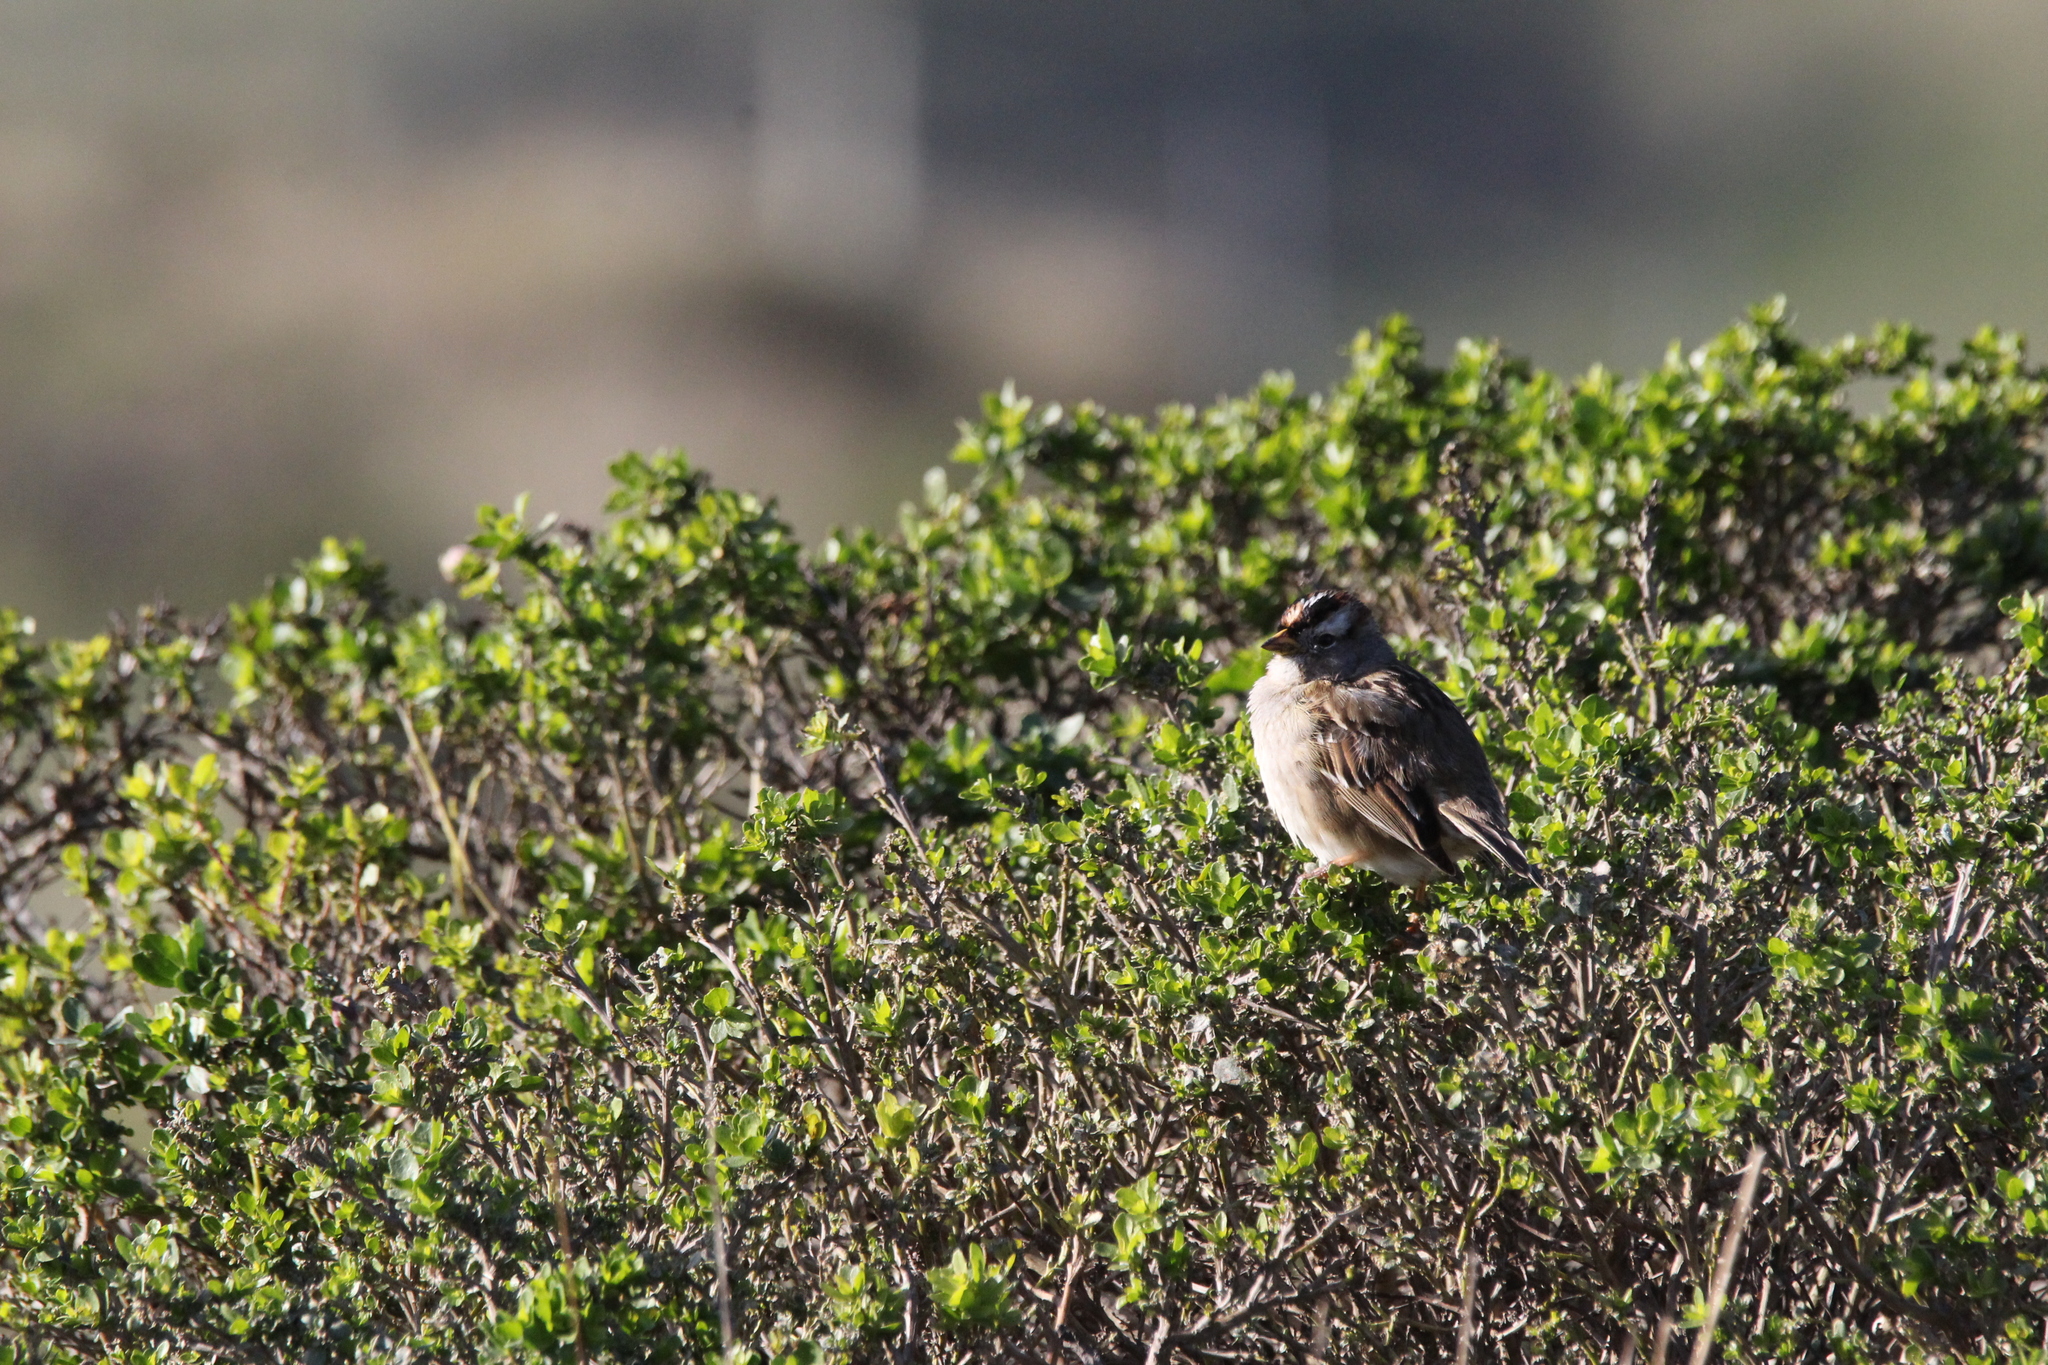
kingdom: Animalia
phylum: Chordata
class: Aves
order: Passeriformes
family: Passerellidae
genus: Zonotrichia
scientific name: Zonotrichia leucophrys
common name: White-crowned sparrow
